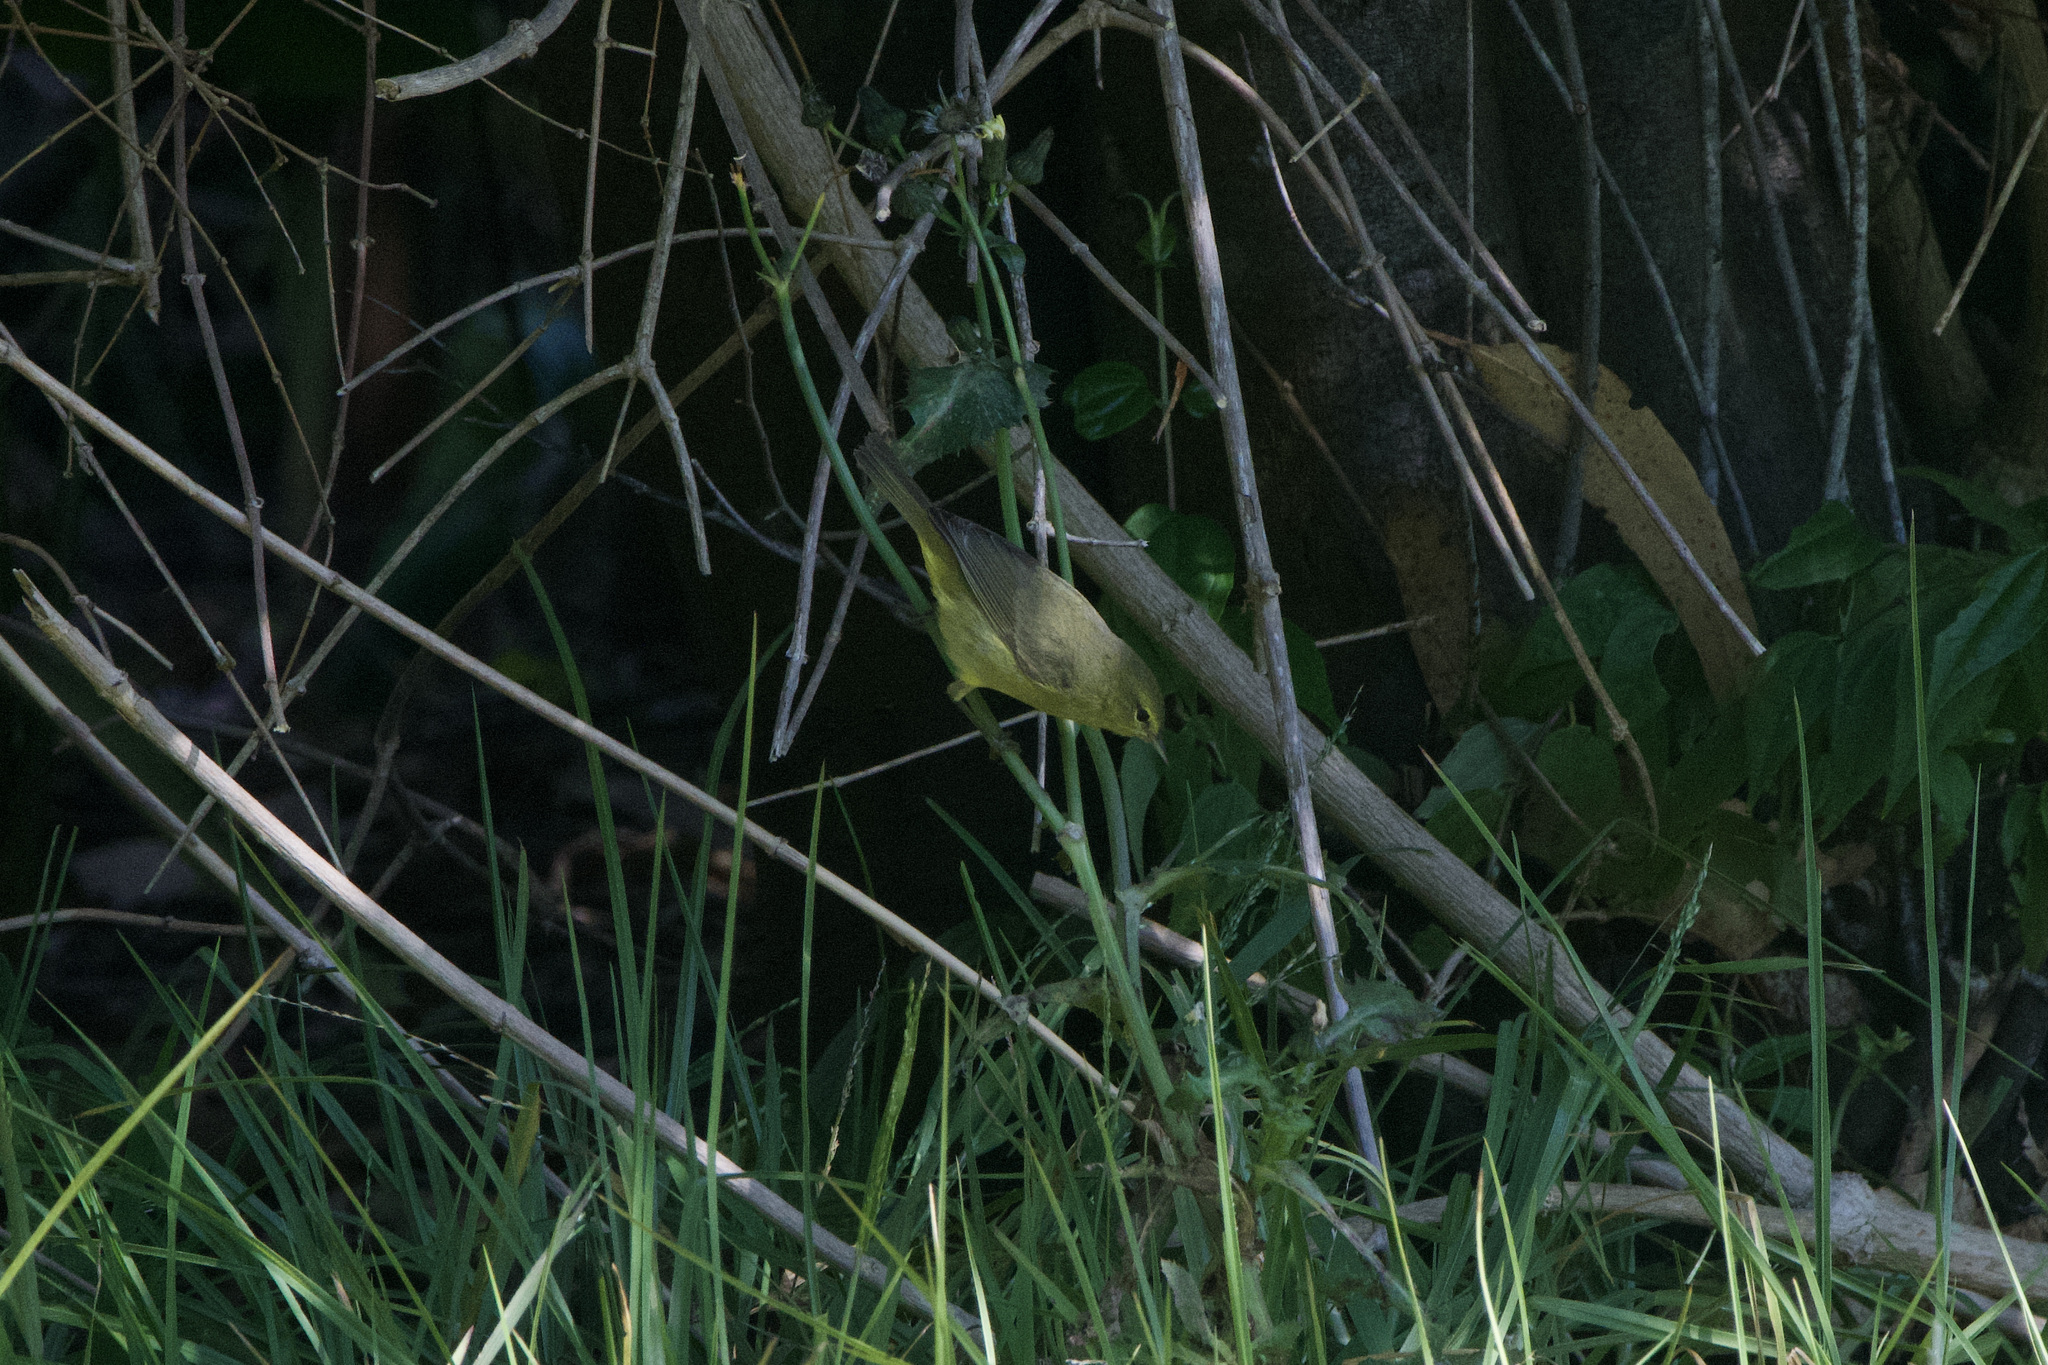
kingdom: Animalia
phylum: Chordata
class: Aves
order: Passeriformes
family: Parulidae
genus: Leiothlypis
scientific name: Leiothlypis celata
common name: Orange-crowned warbler
